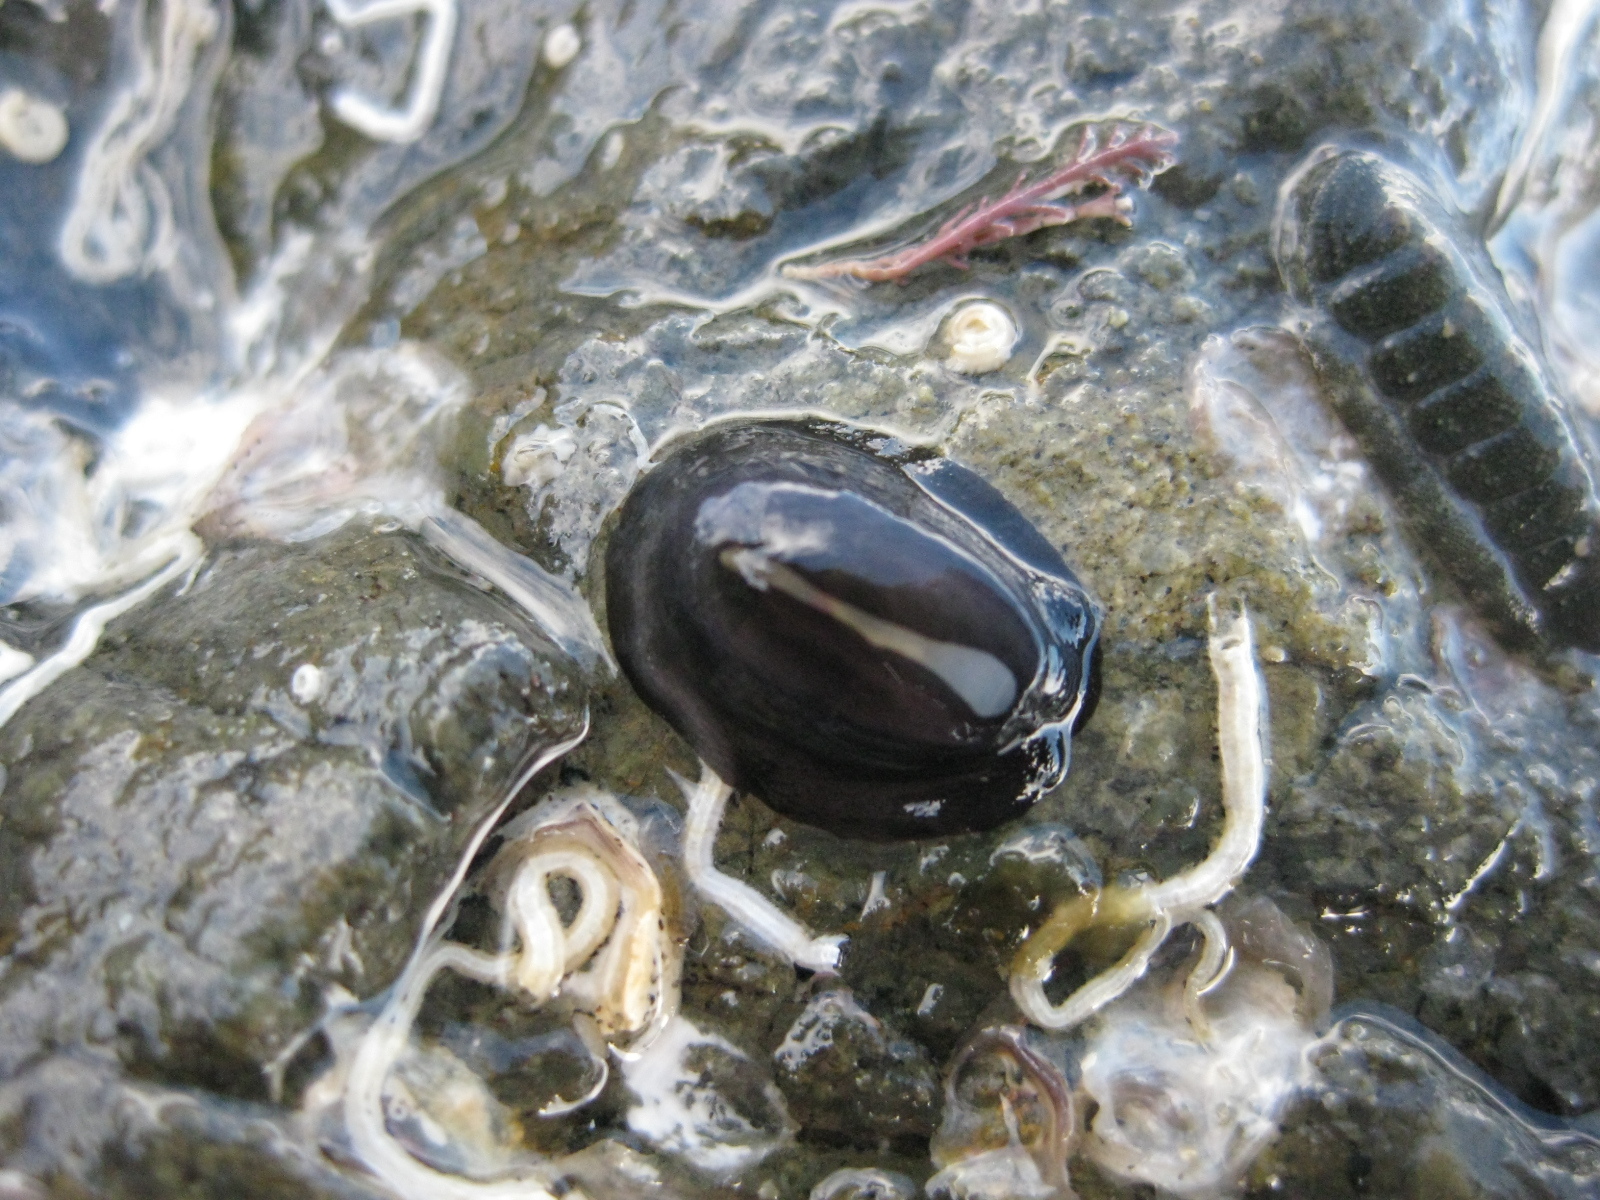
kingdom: Animalia
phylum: Mollusca
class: Gastropoda
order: Lepetellida
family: Fissurellidae
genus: Scutus
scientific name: Scutus breviculus
